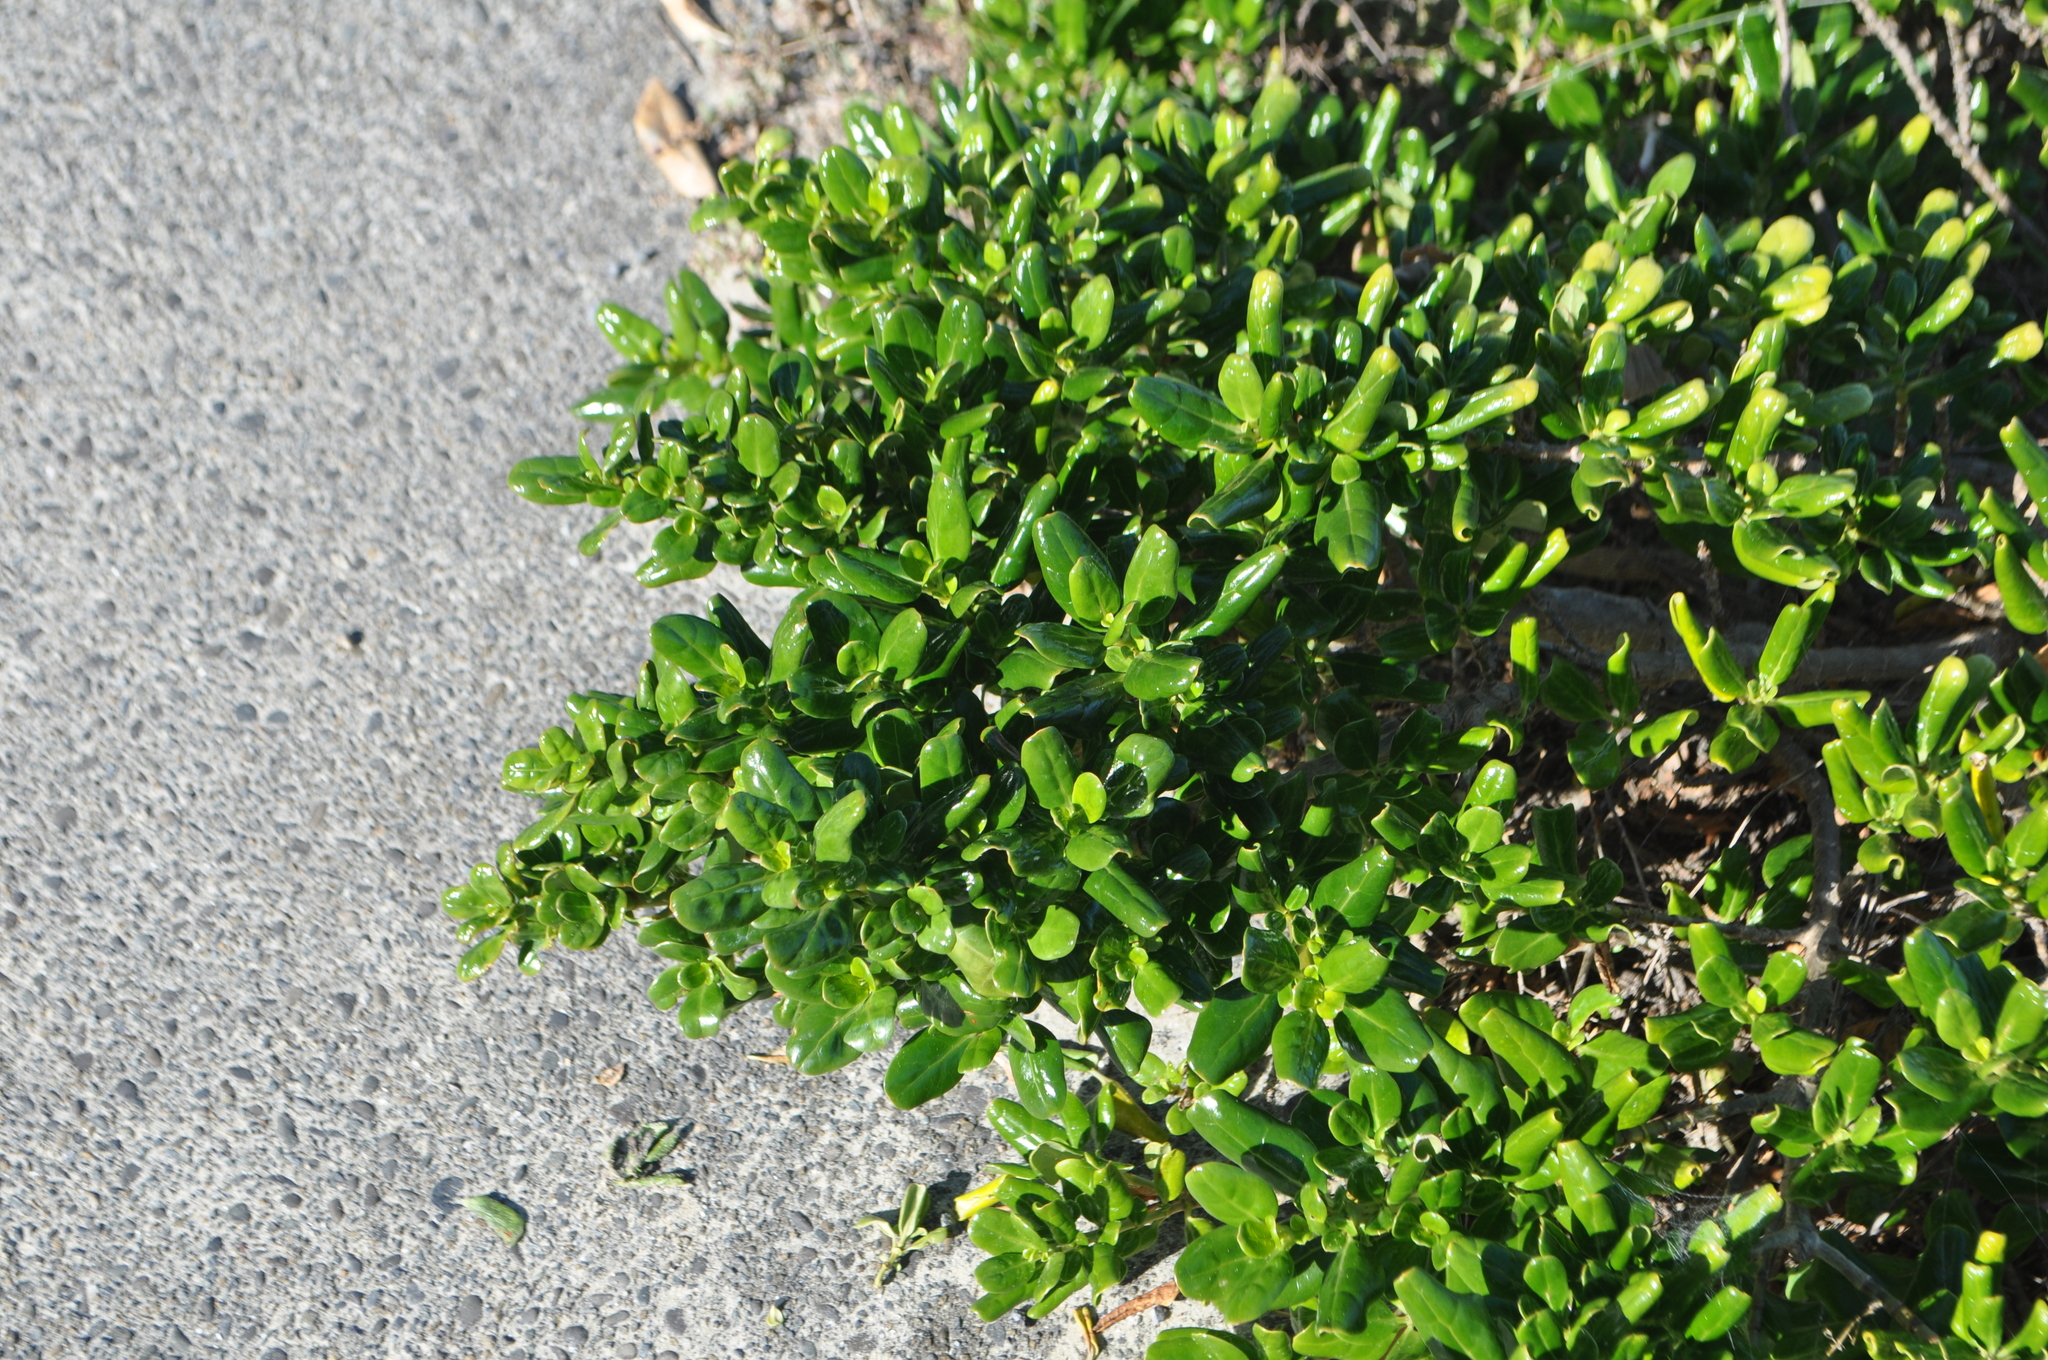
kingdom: Plantae
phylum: Tracheophyta
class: Magnoliopsida
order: Gentianales
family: Rubiaceae
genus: Coprosma
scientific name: Coprosma repens
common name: Tree bedstraw
